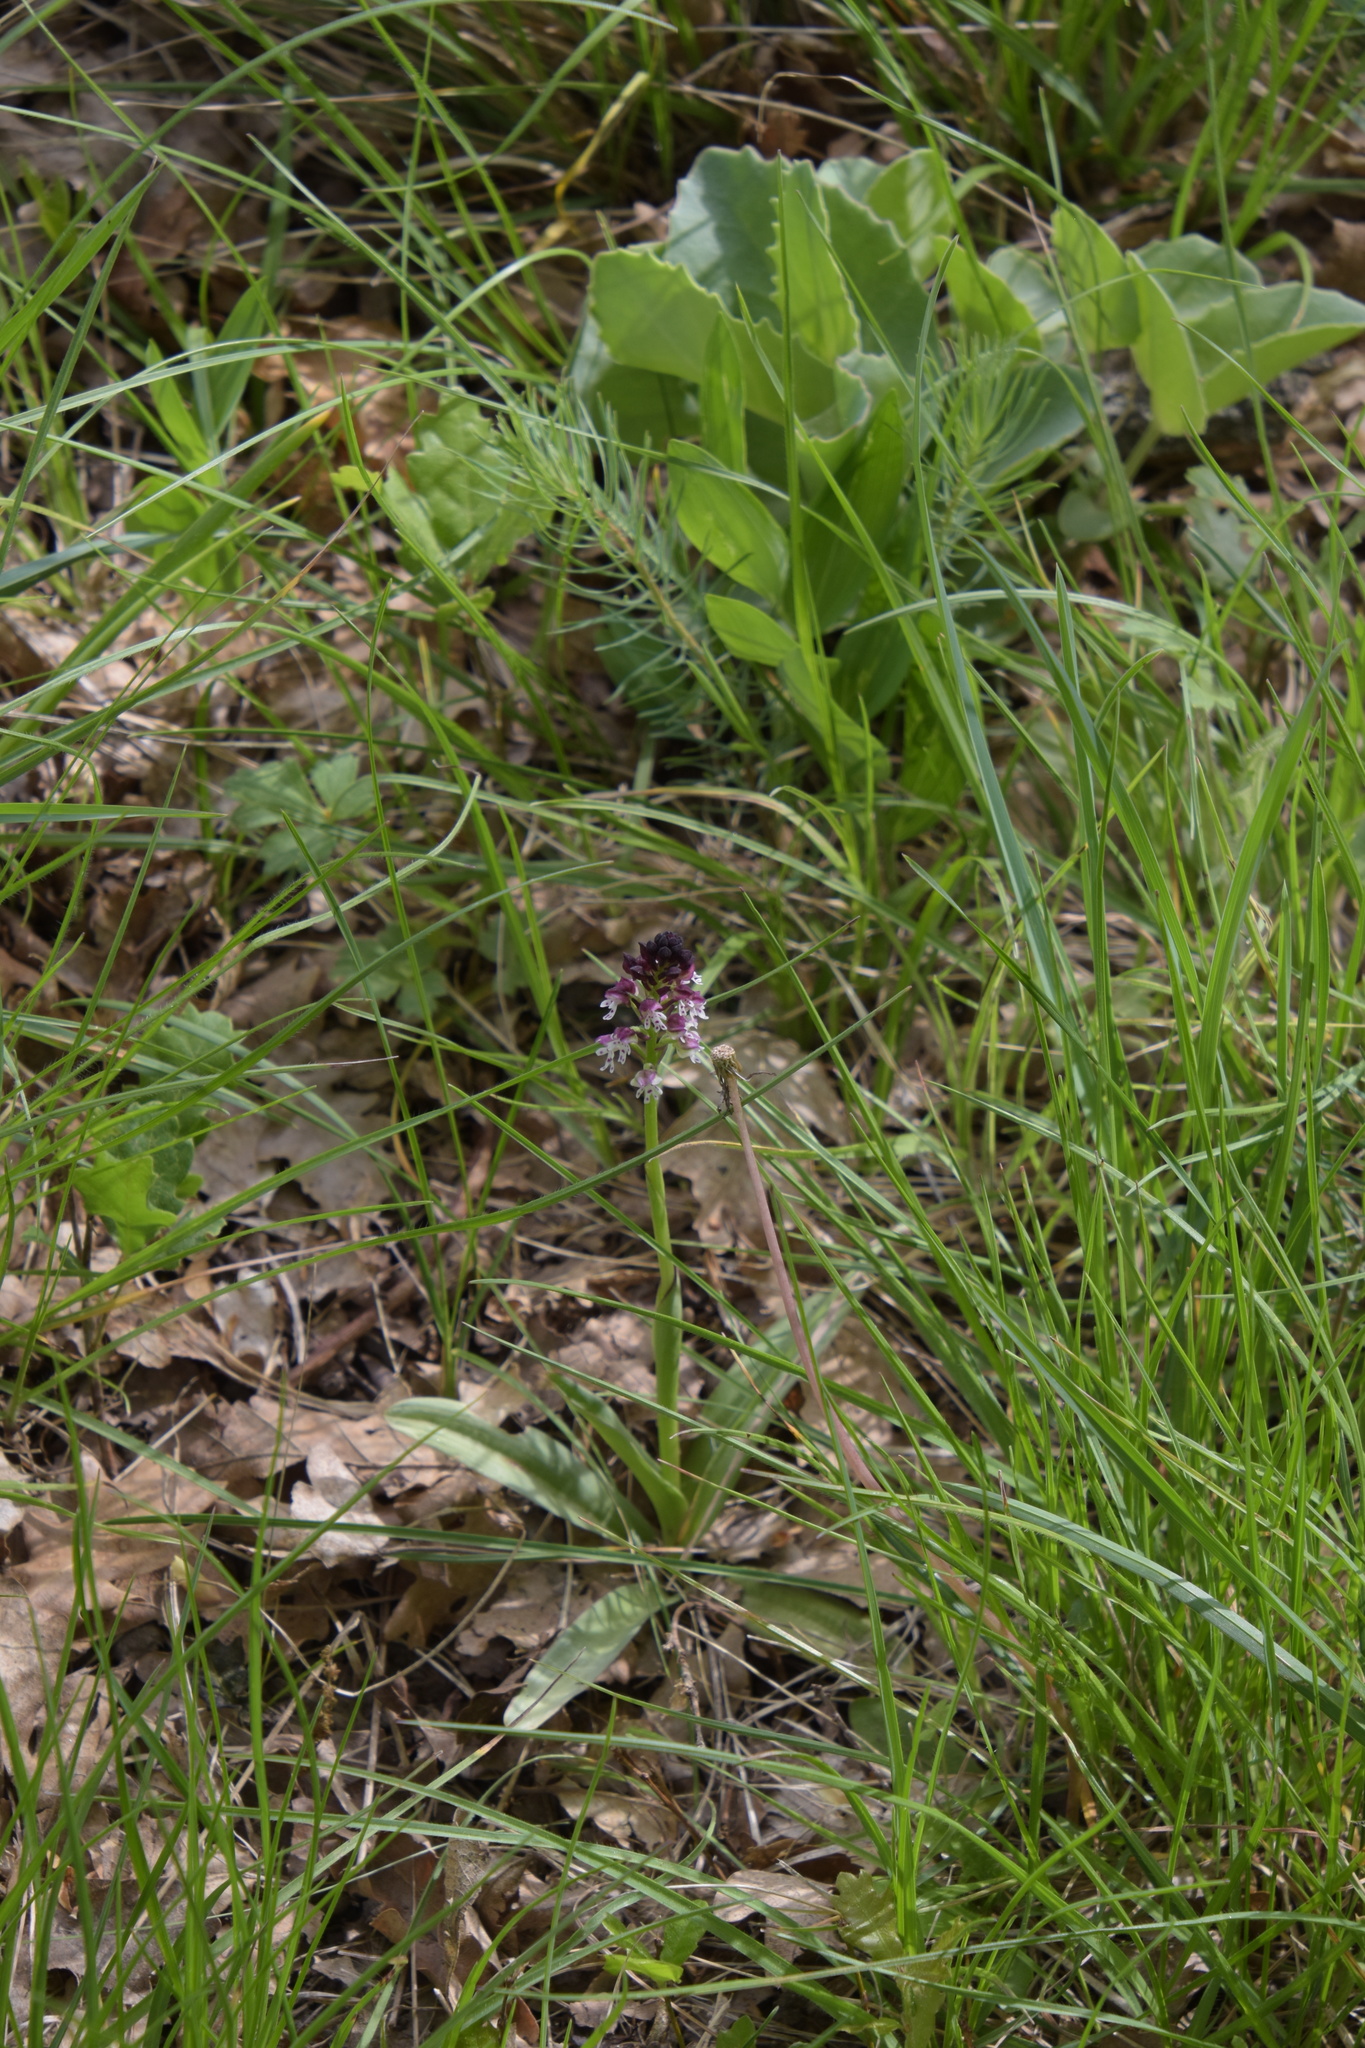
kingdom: Plantae
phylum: Tracheophyta
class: Liliopsida
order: Asparagales
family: Orchidaceae
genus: Neotinea
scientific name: Neotinea ustulata
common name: Burnt orchid
